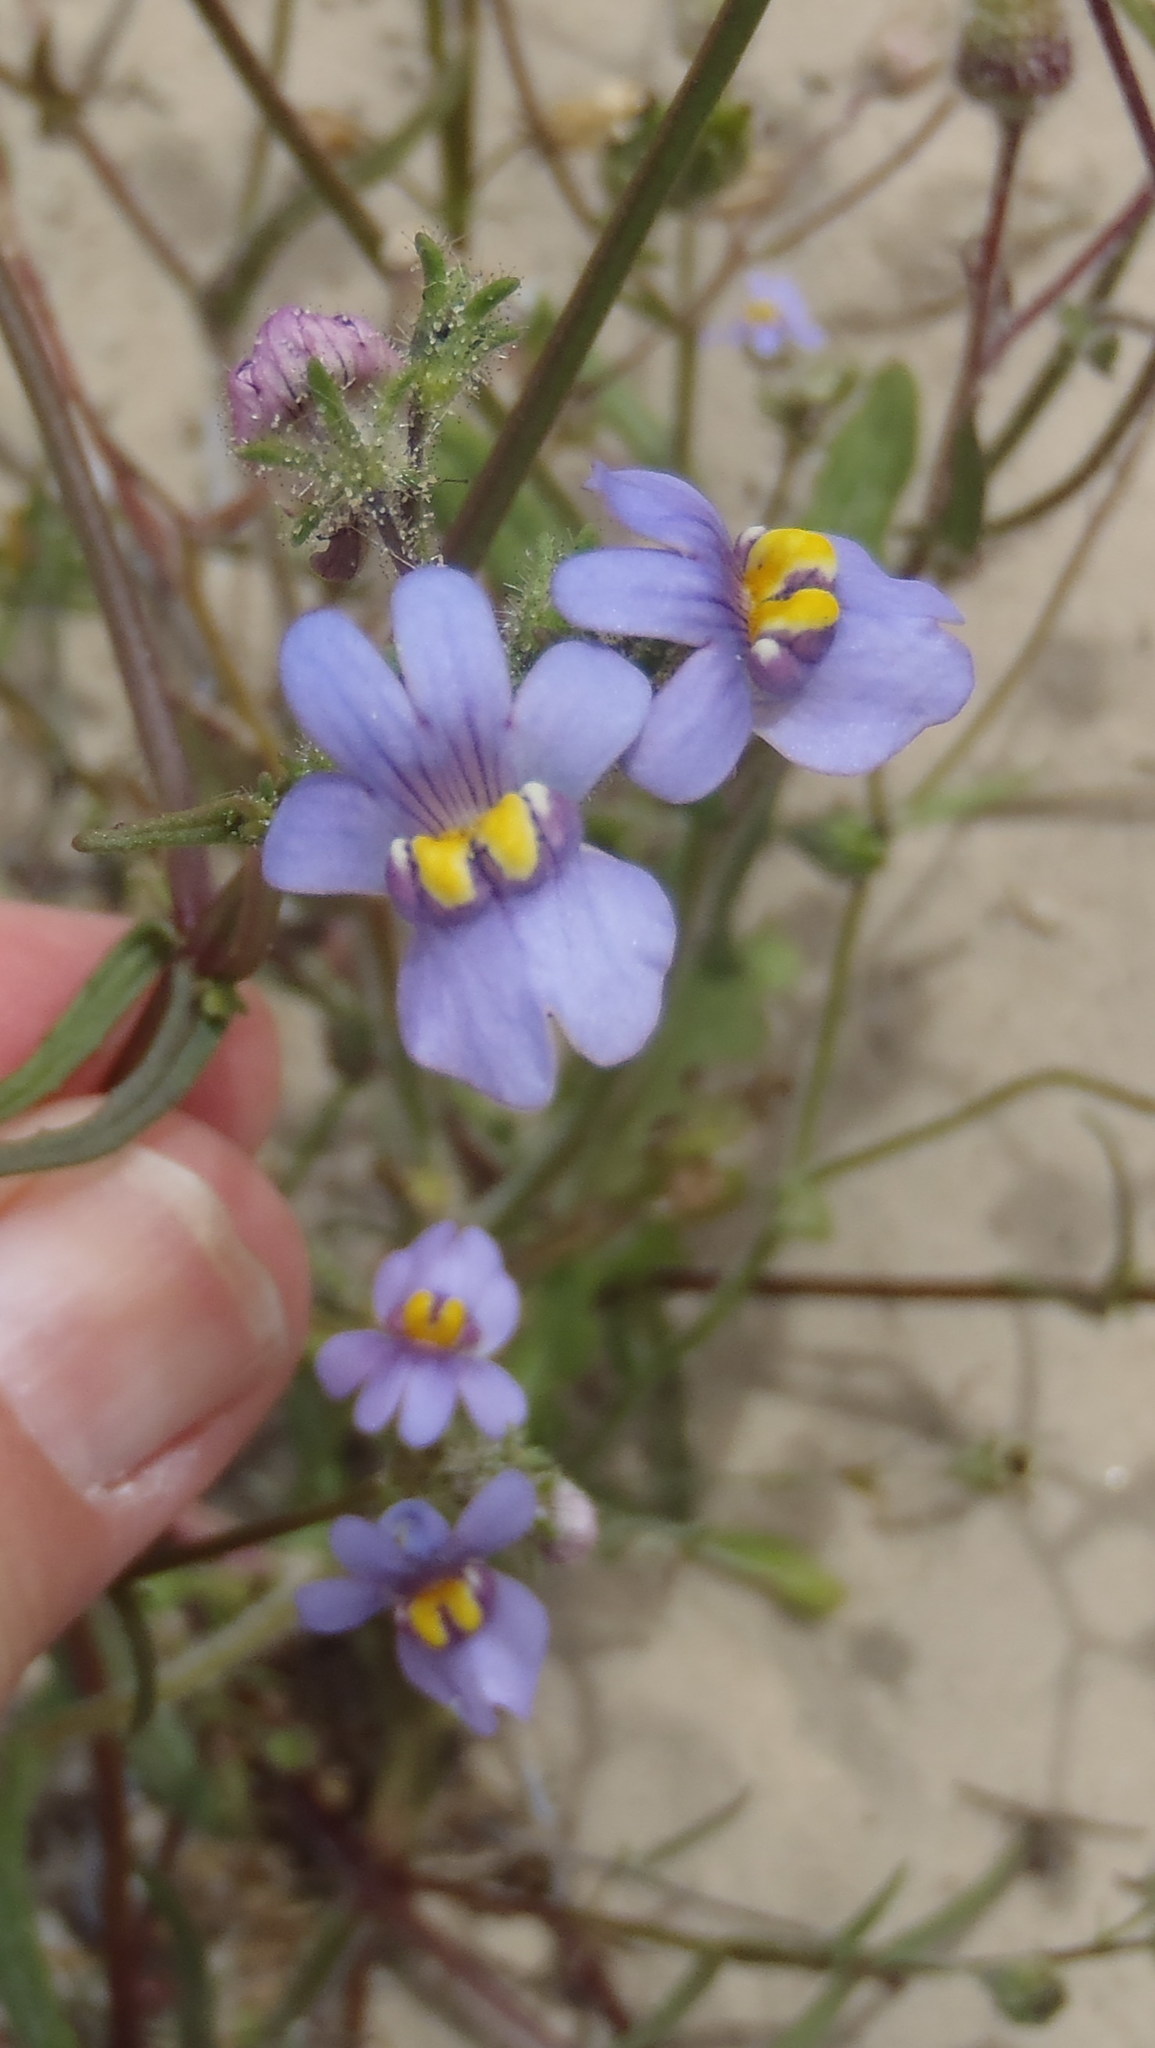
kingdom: Plantae
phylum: Tracheophyta
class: Magnoliopsida
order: Lamiales
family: Scrophulariaceae
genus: Nemesia
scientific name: Nemesia affinis
